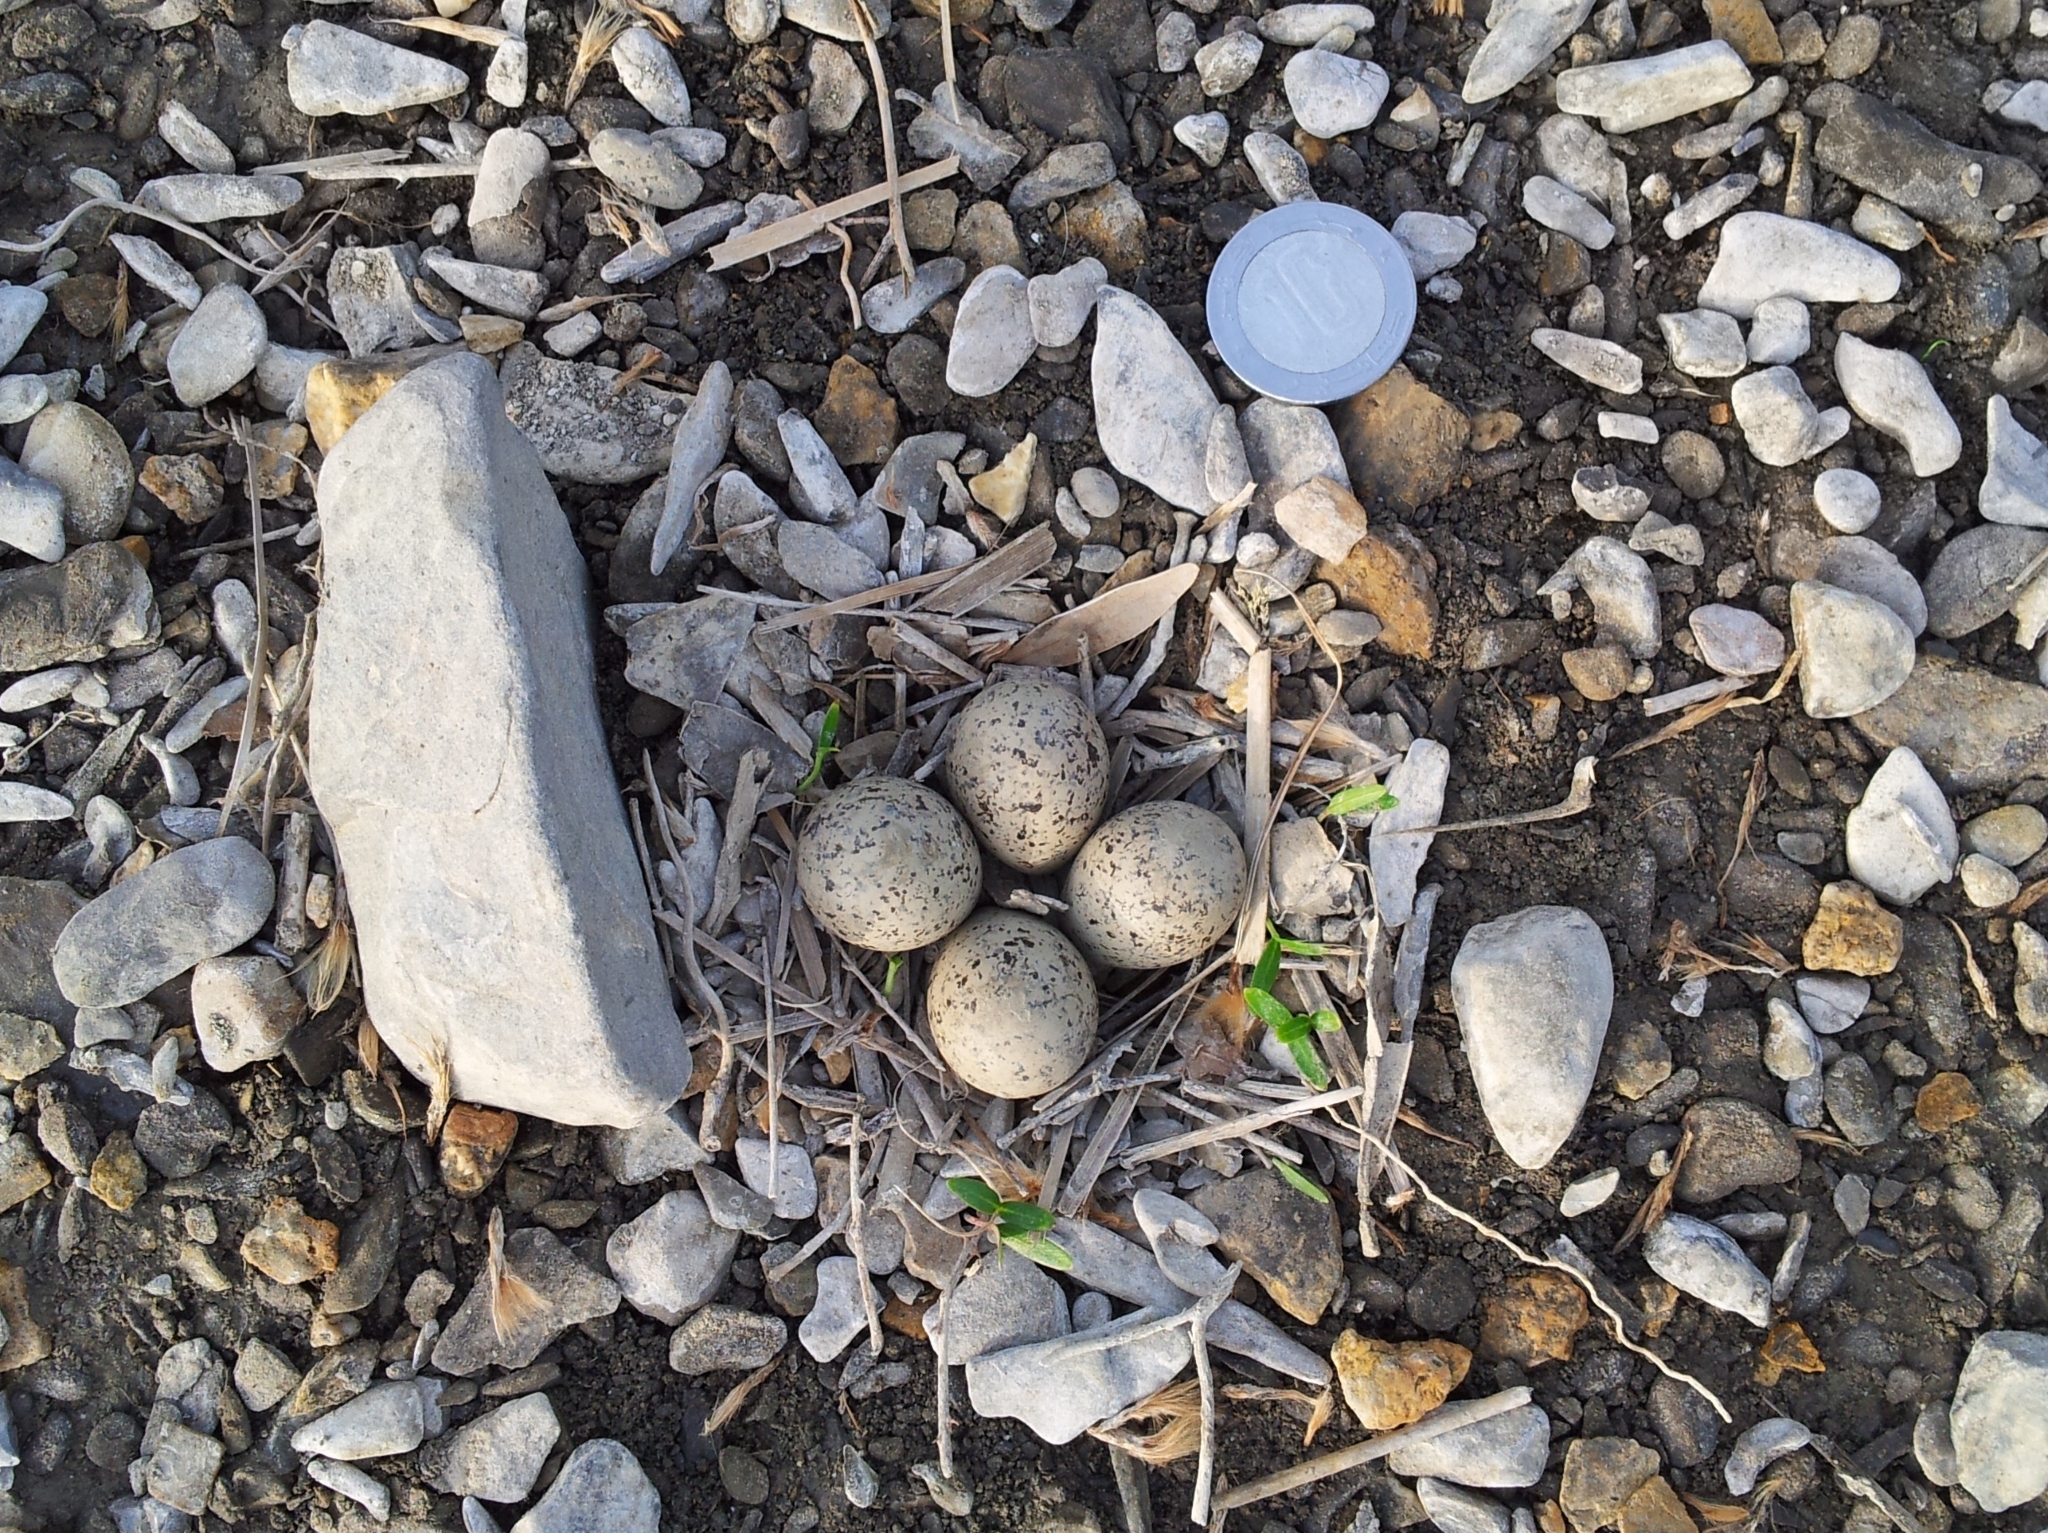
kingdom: Animalia
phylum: Chordata
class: Aves
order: Charadriiformes
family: Charadriidae
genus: Charadrius
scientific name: Charadrius dubius
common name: Little ringed plover
